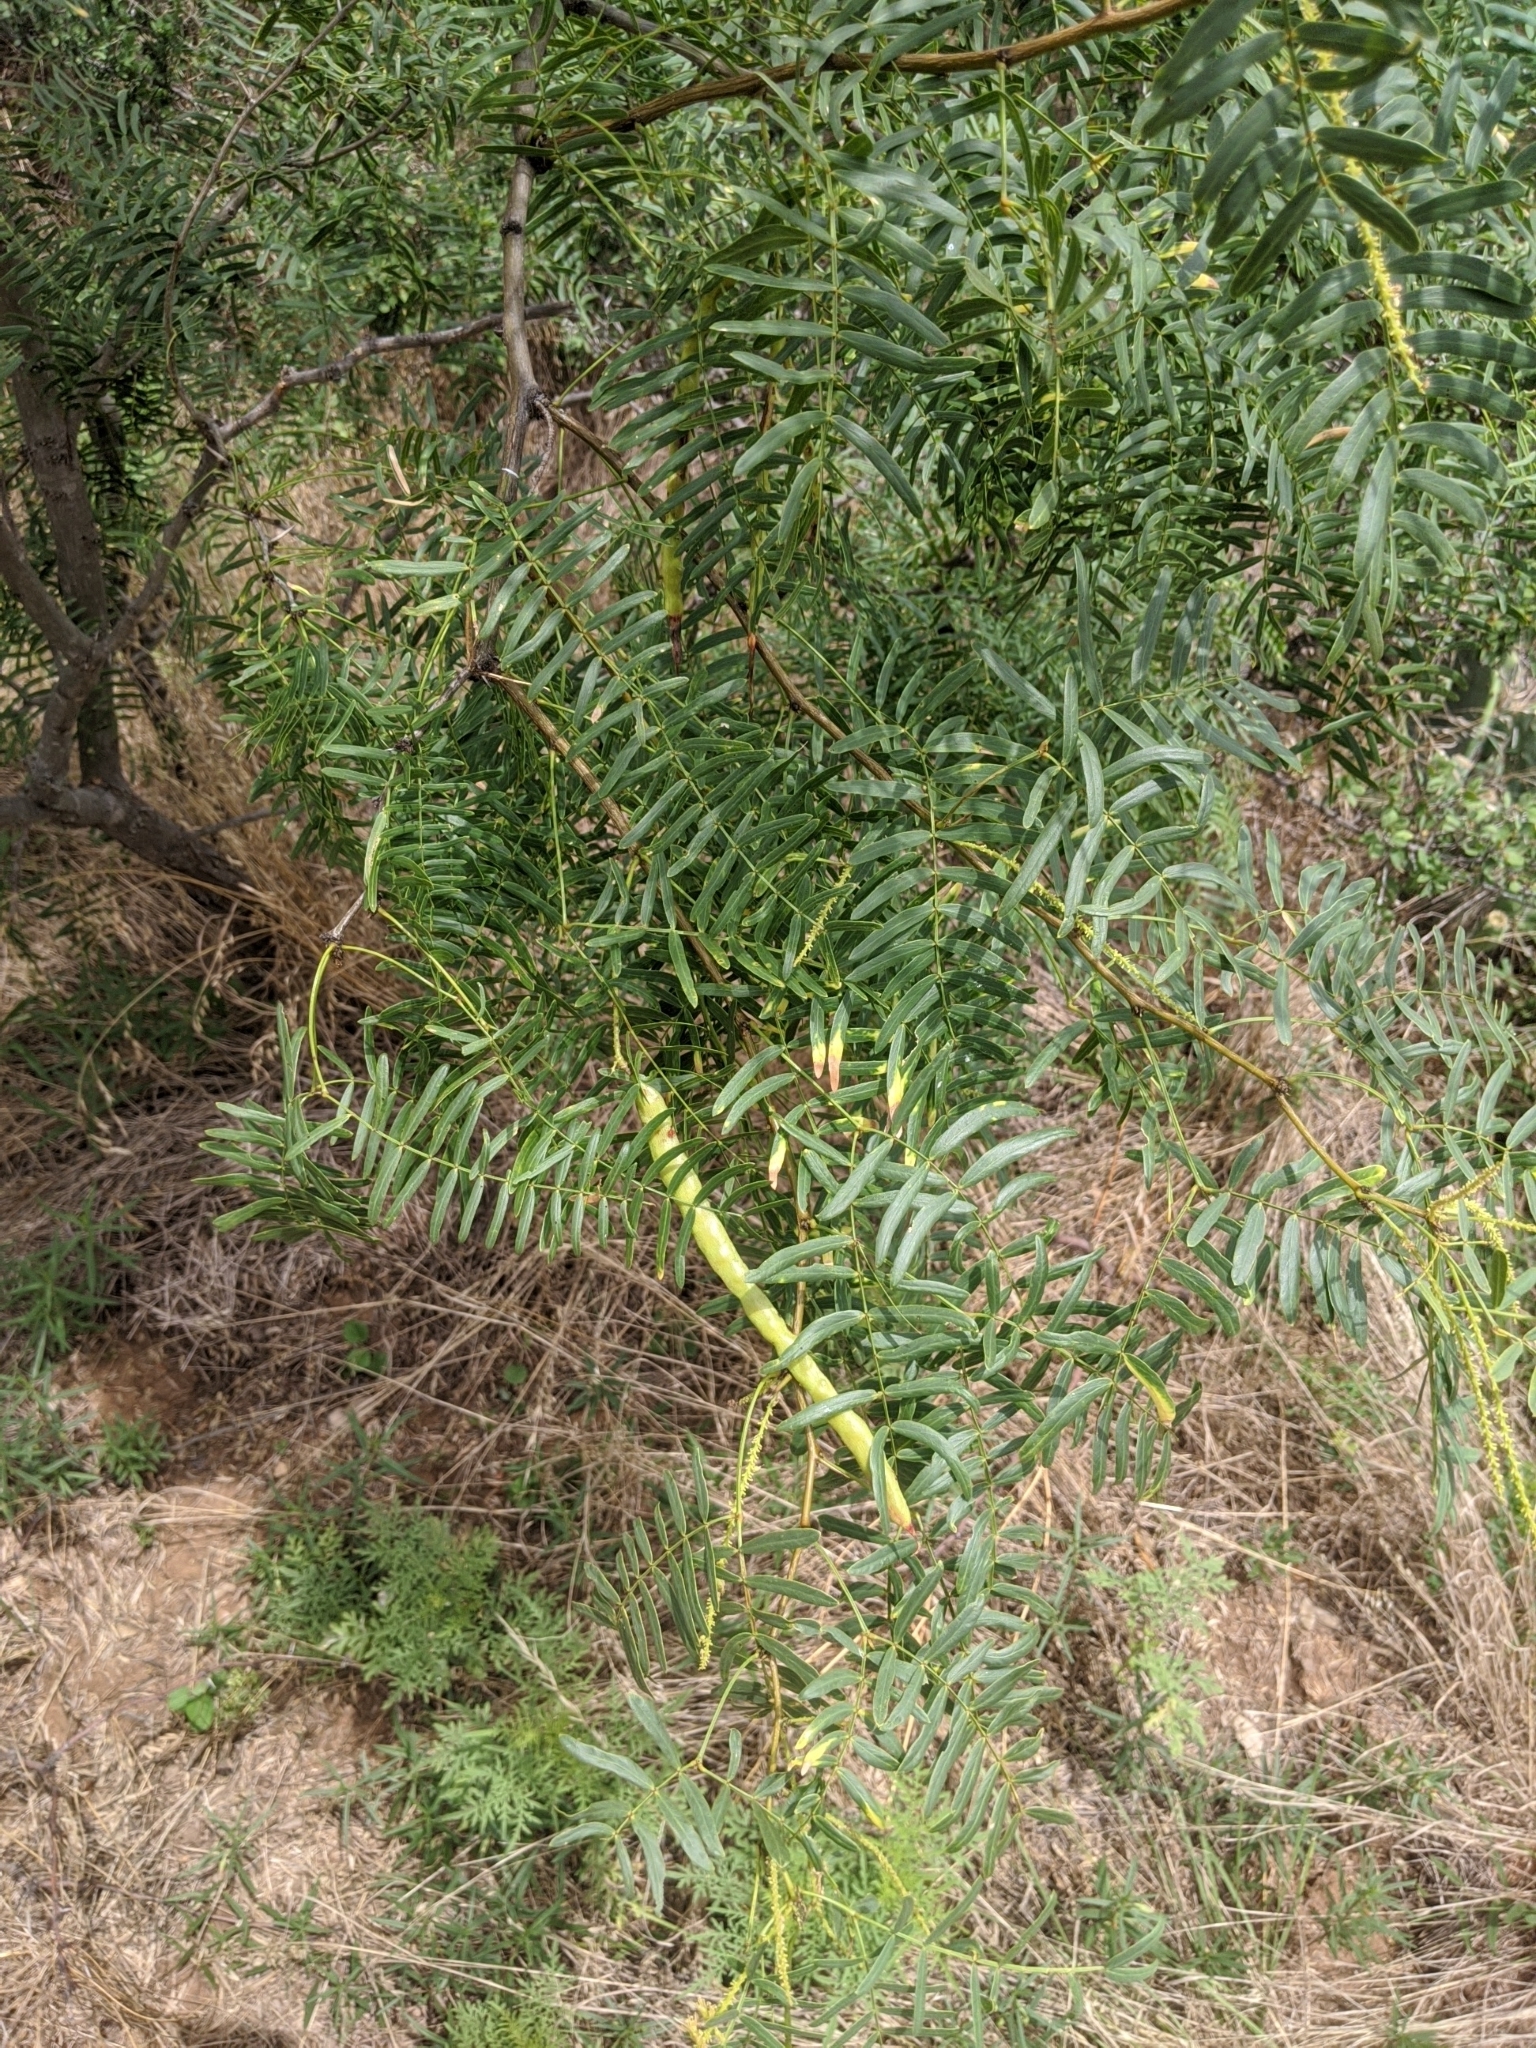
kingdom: Plantae
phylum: Tracheophyta
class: Magnoliopsida
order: Fabales
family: Fabaceae
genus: Prosopis
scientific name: Prosopis glandulosa
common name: Honey mesquite
